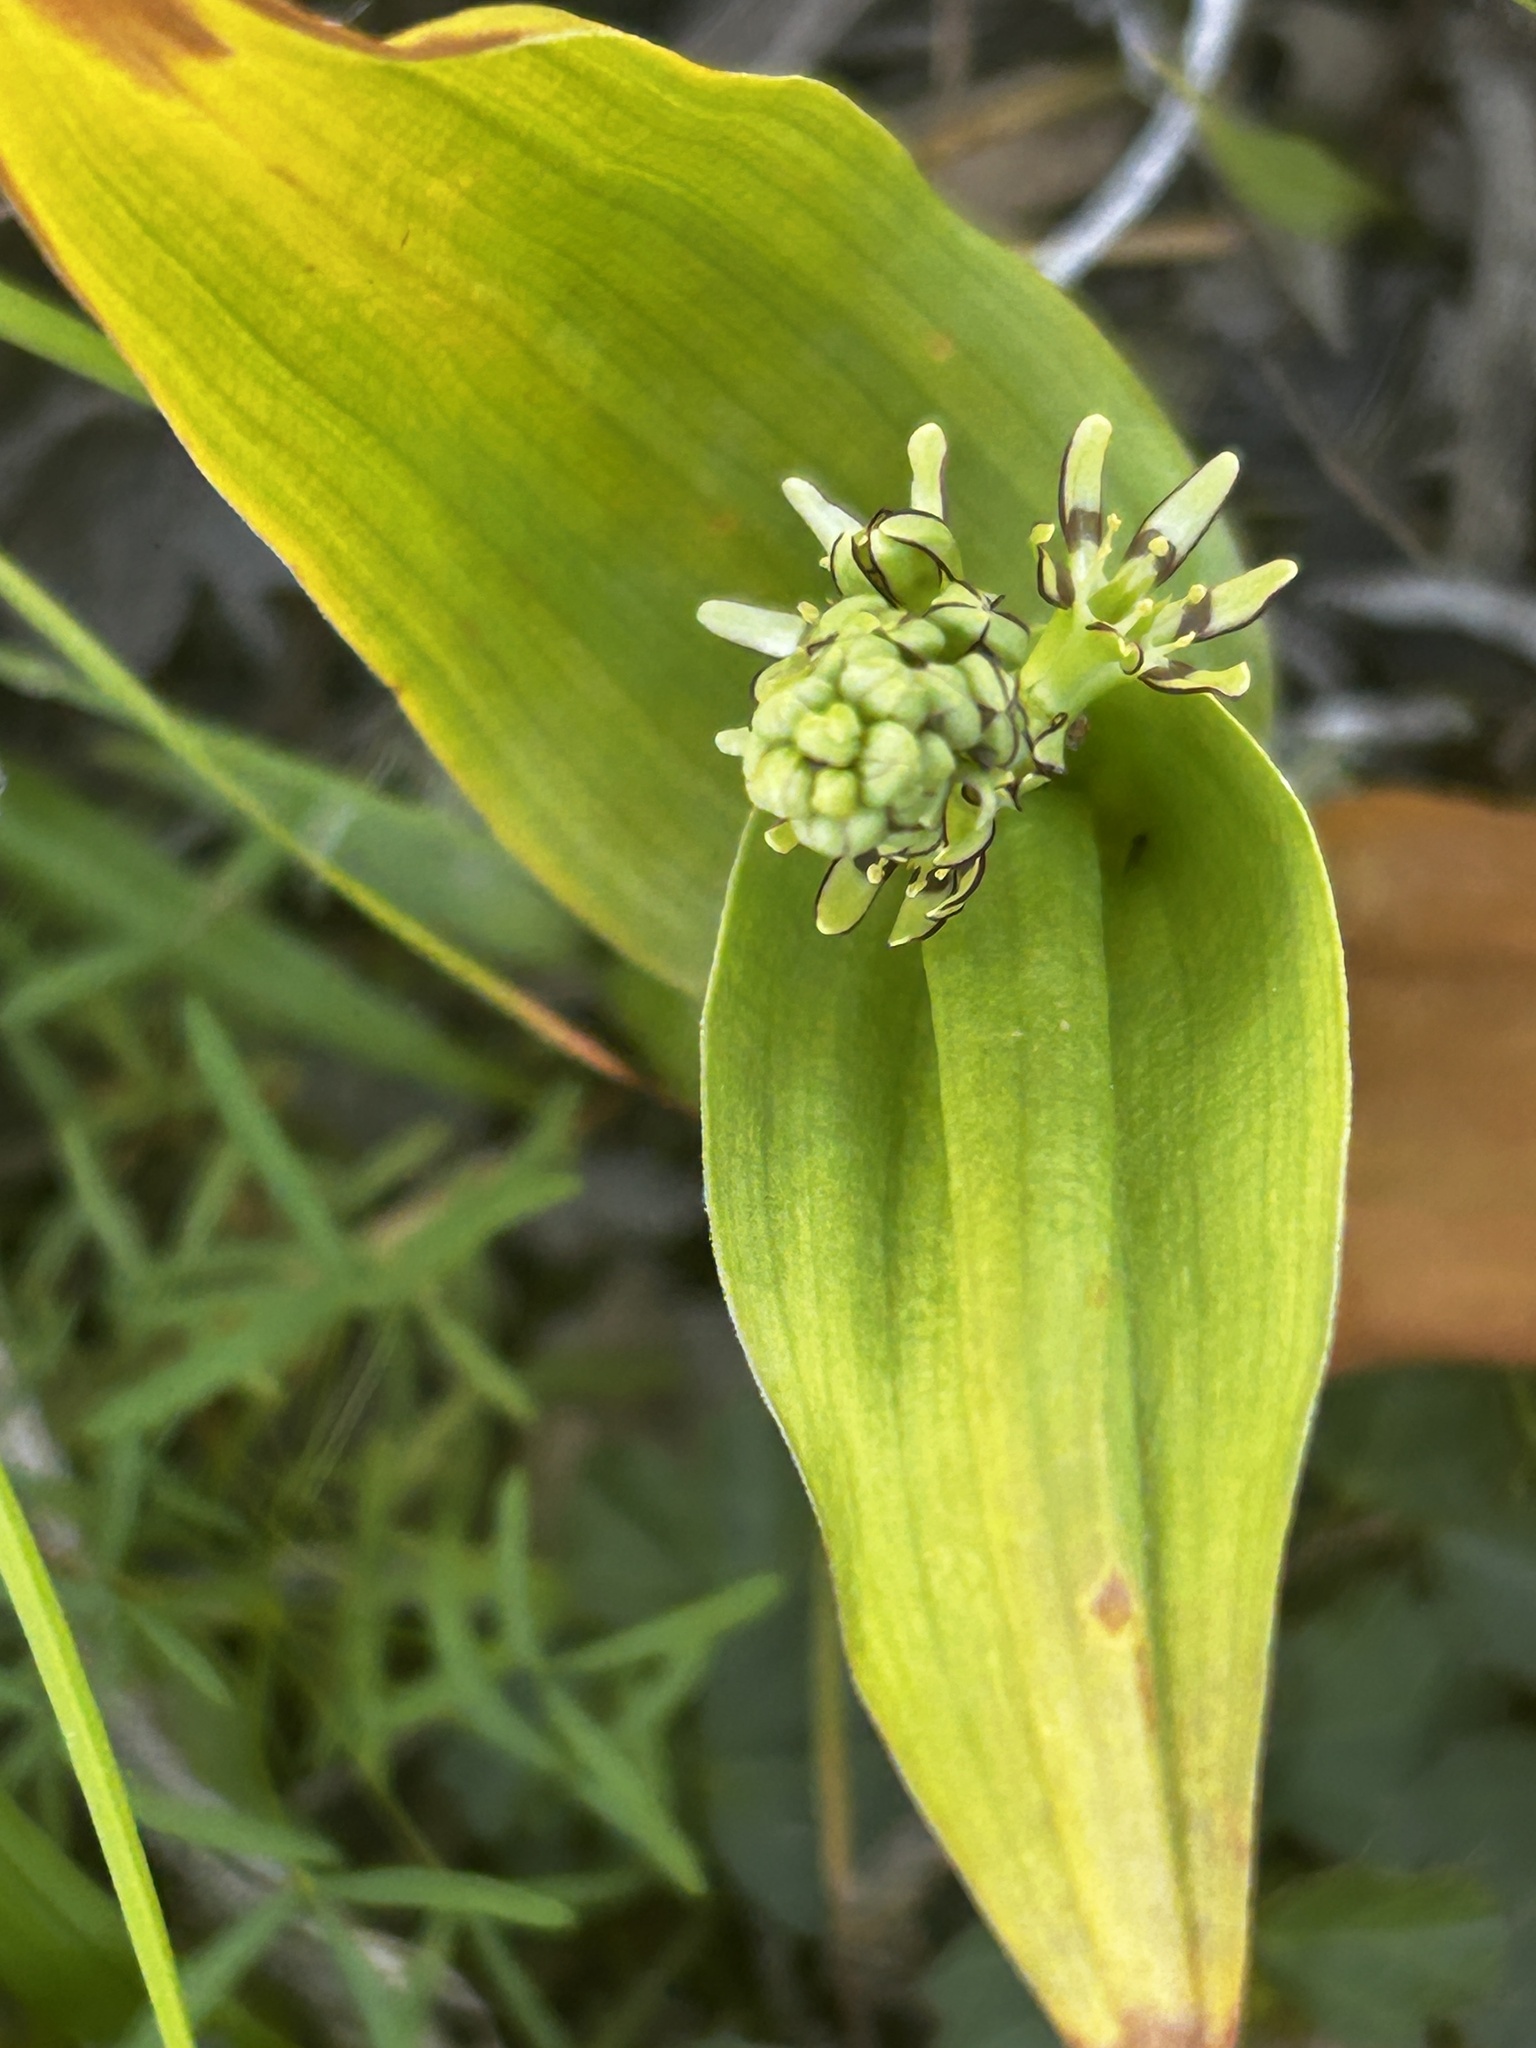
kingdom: Plantae
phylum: Tracheophyta
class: Liliopsida
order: Liliales
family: Colchicaceae
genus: Wurmbea
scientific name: Wurmbea variabilis
